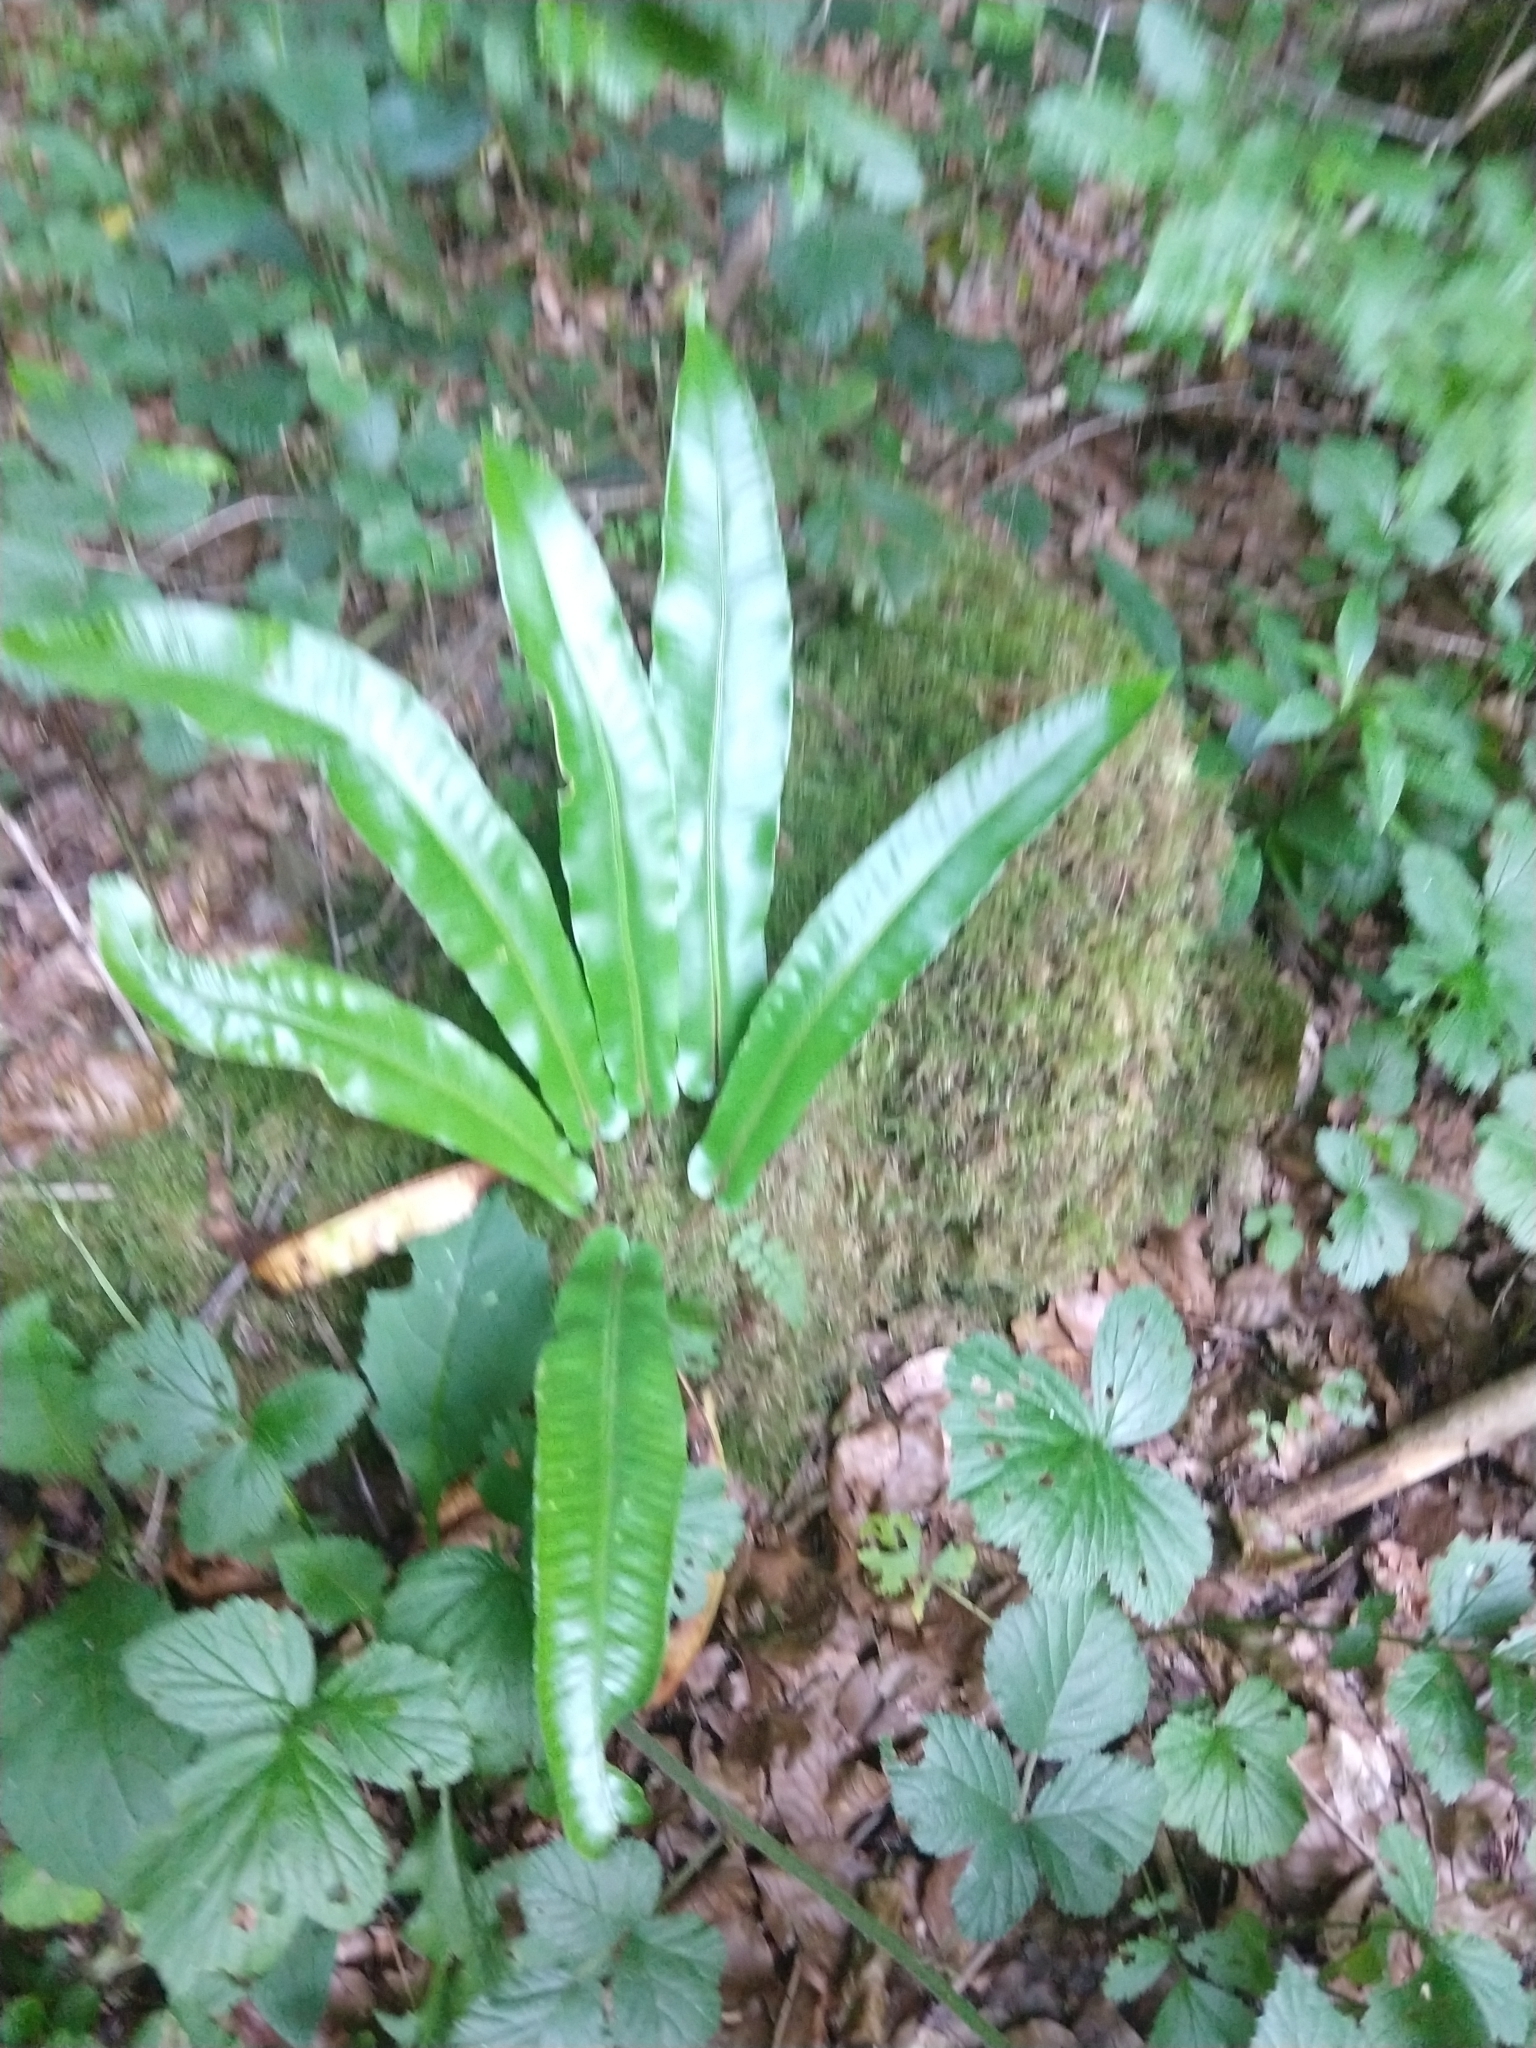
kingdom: Plantae
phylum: Tracheophyta
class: Polypodiopsida
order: Polypodiales
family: Aspleniaceae
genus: Asplenium
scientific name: Asplenium scolopendrium
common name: Hart's-tongue fern
